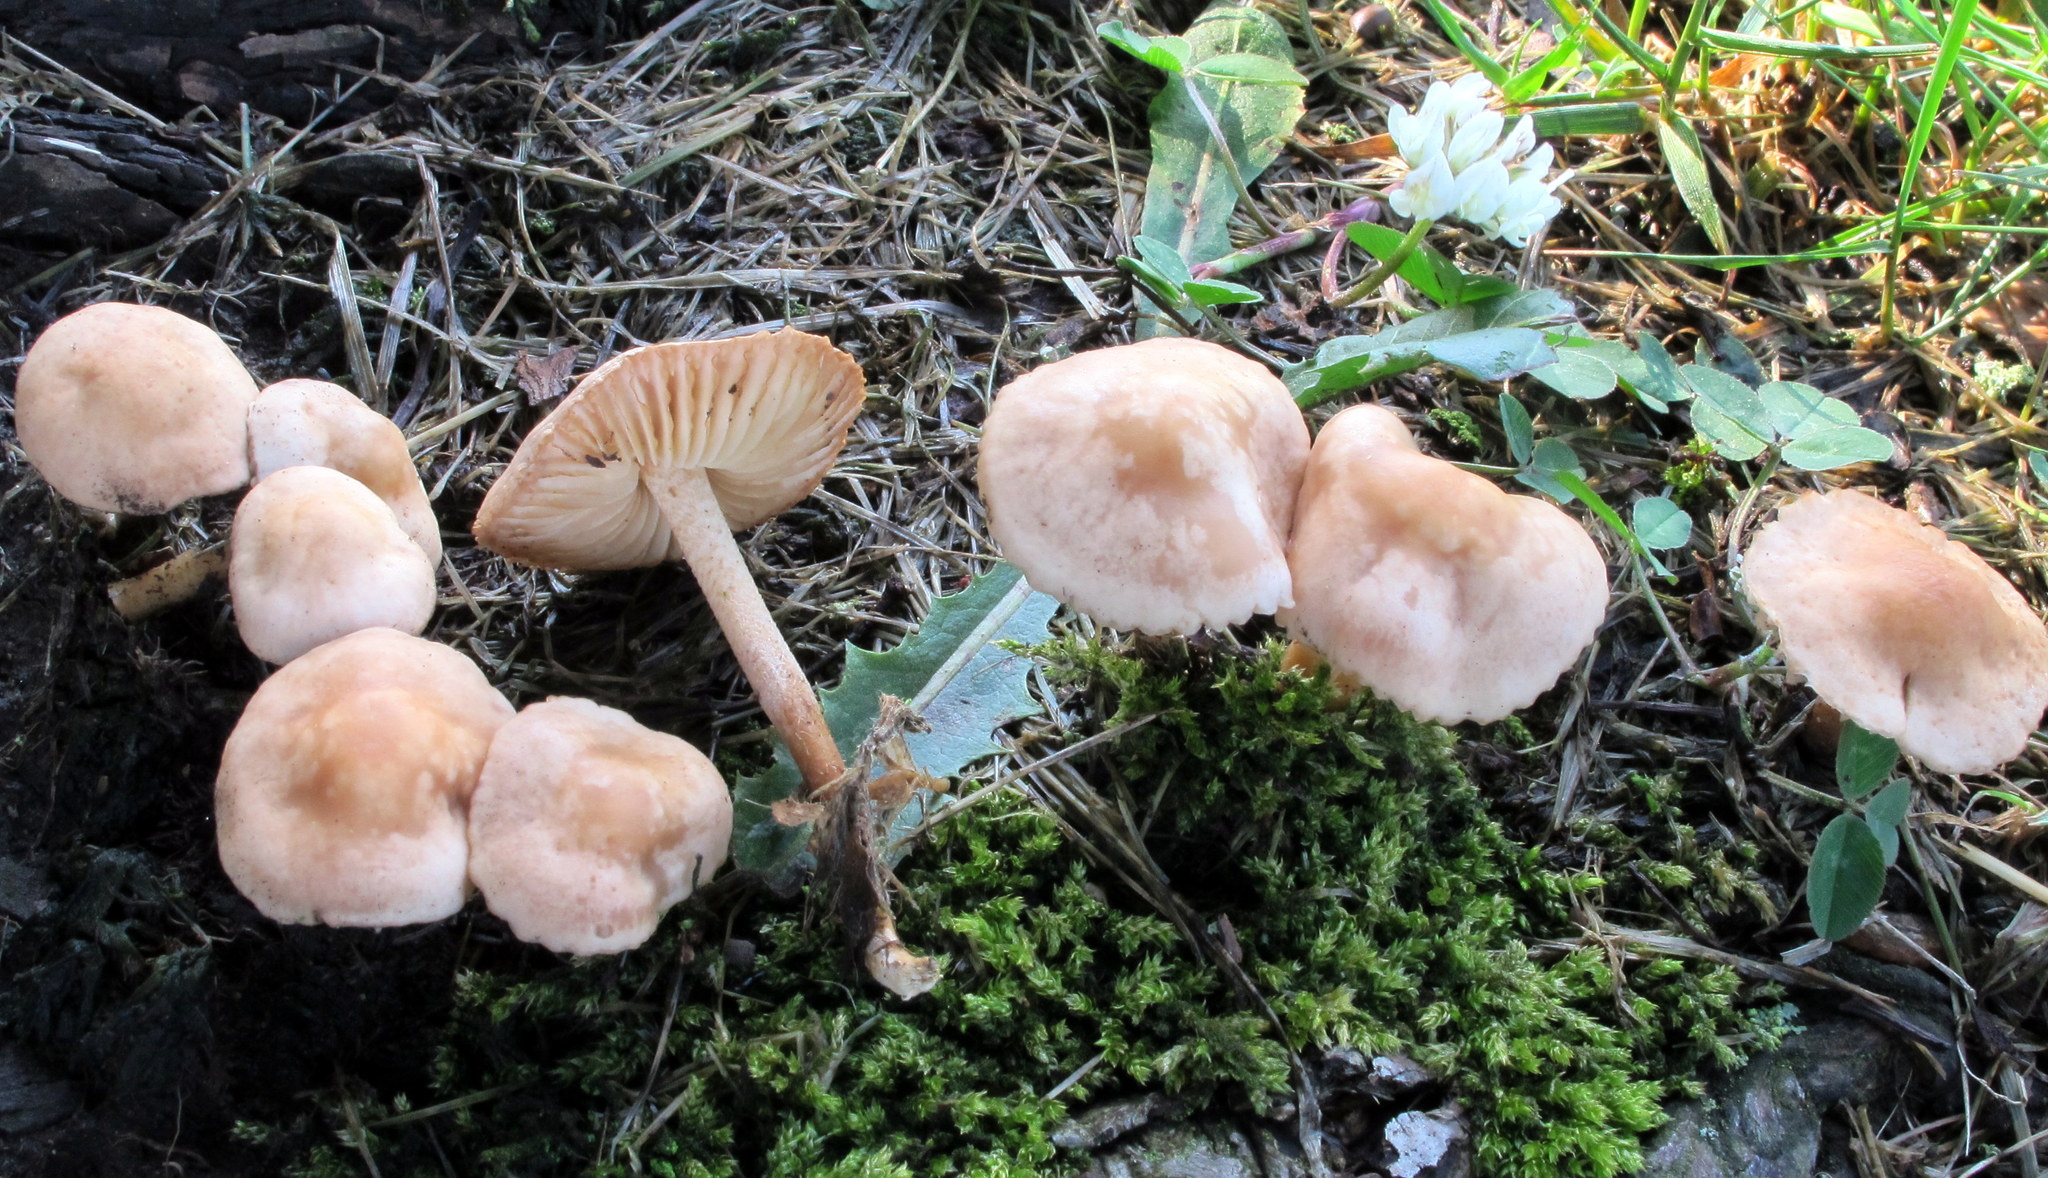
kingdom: Fungi
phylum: Basidiomycota
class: Agaricomycetes
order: Agaricales
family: Marasmiaceae
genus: Marasmius
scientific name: Marasmius oreades
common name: Fairy ring champignon
